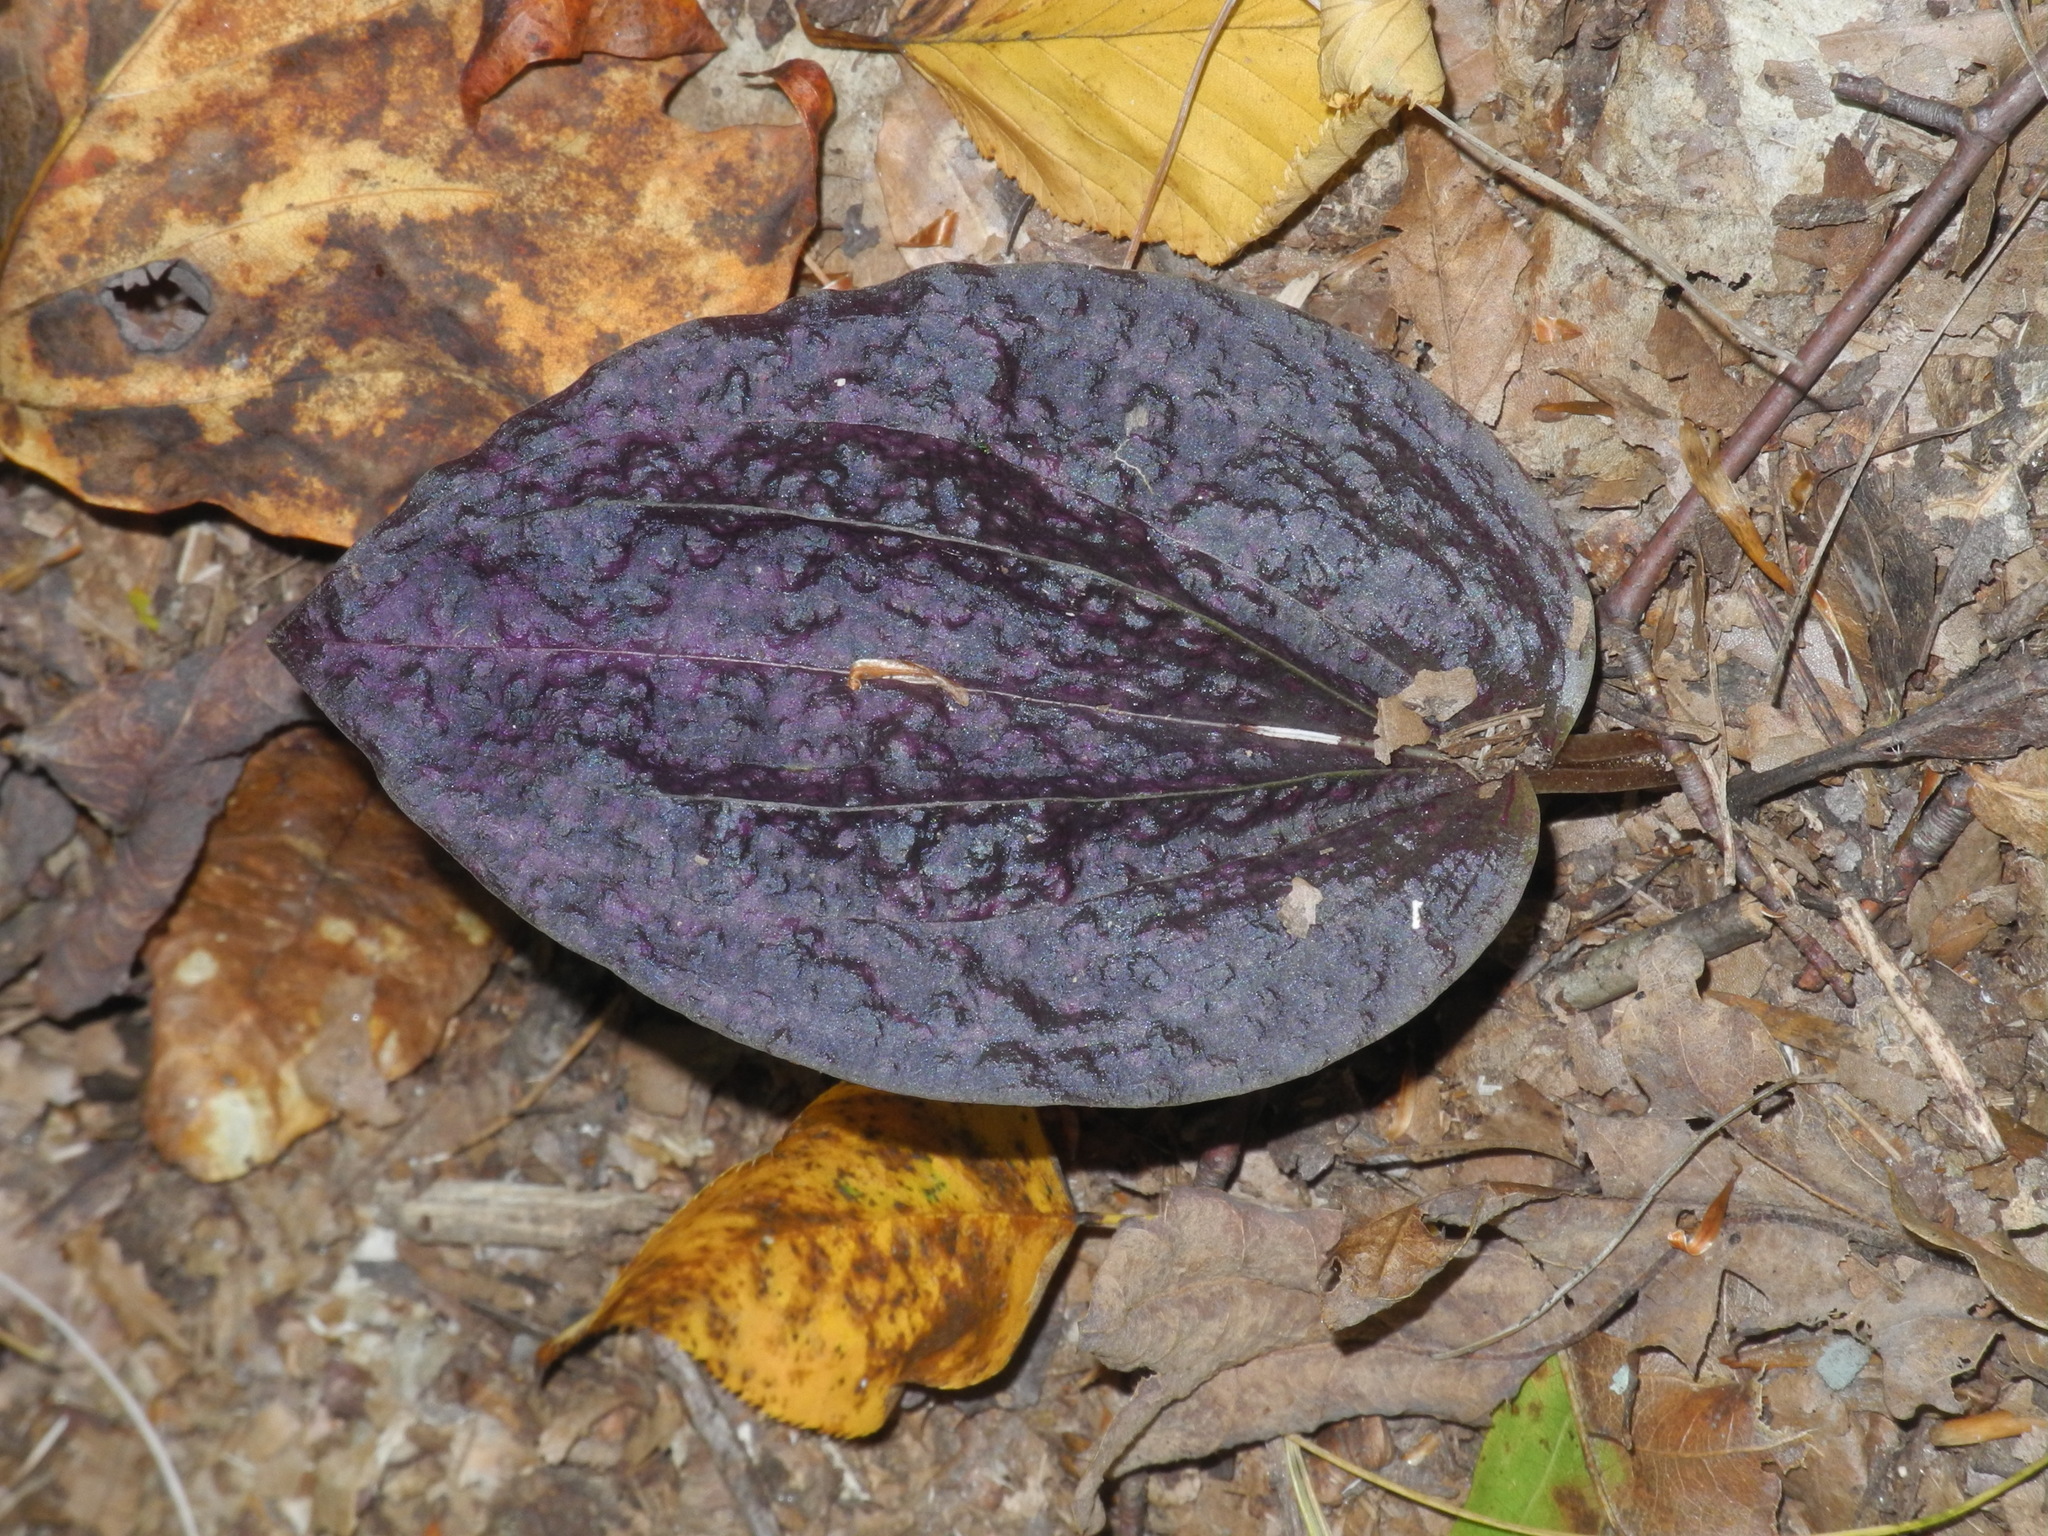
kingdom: Plantae
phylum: Tracheophyta
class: Liliopsida
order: Asparagales
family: Orchidaceae
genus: Tipularia
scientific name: Tipularia discolor
